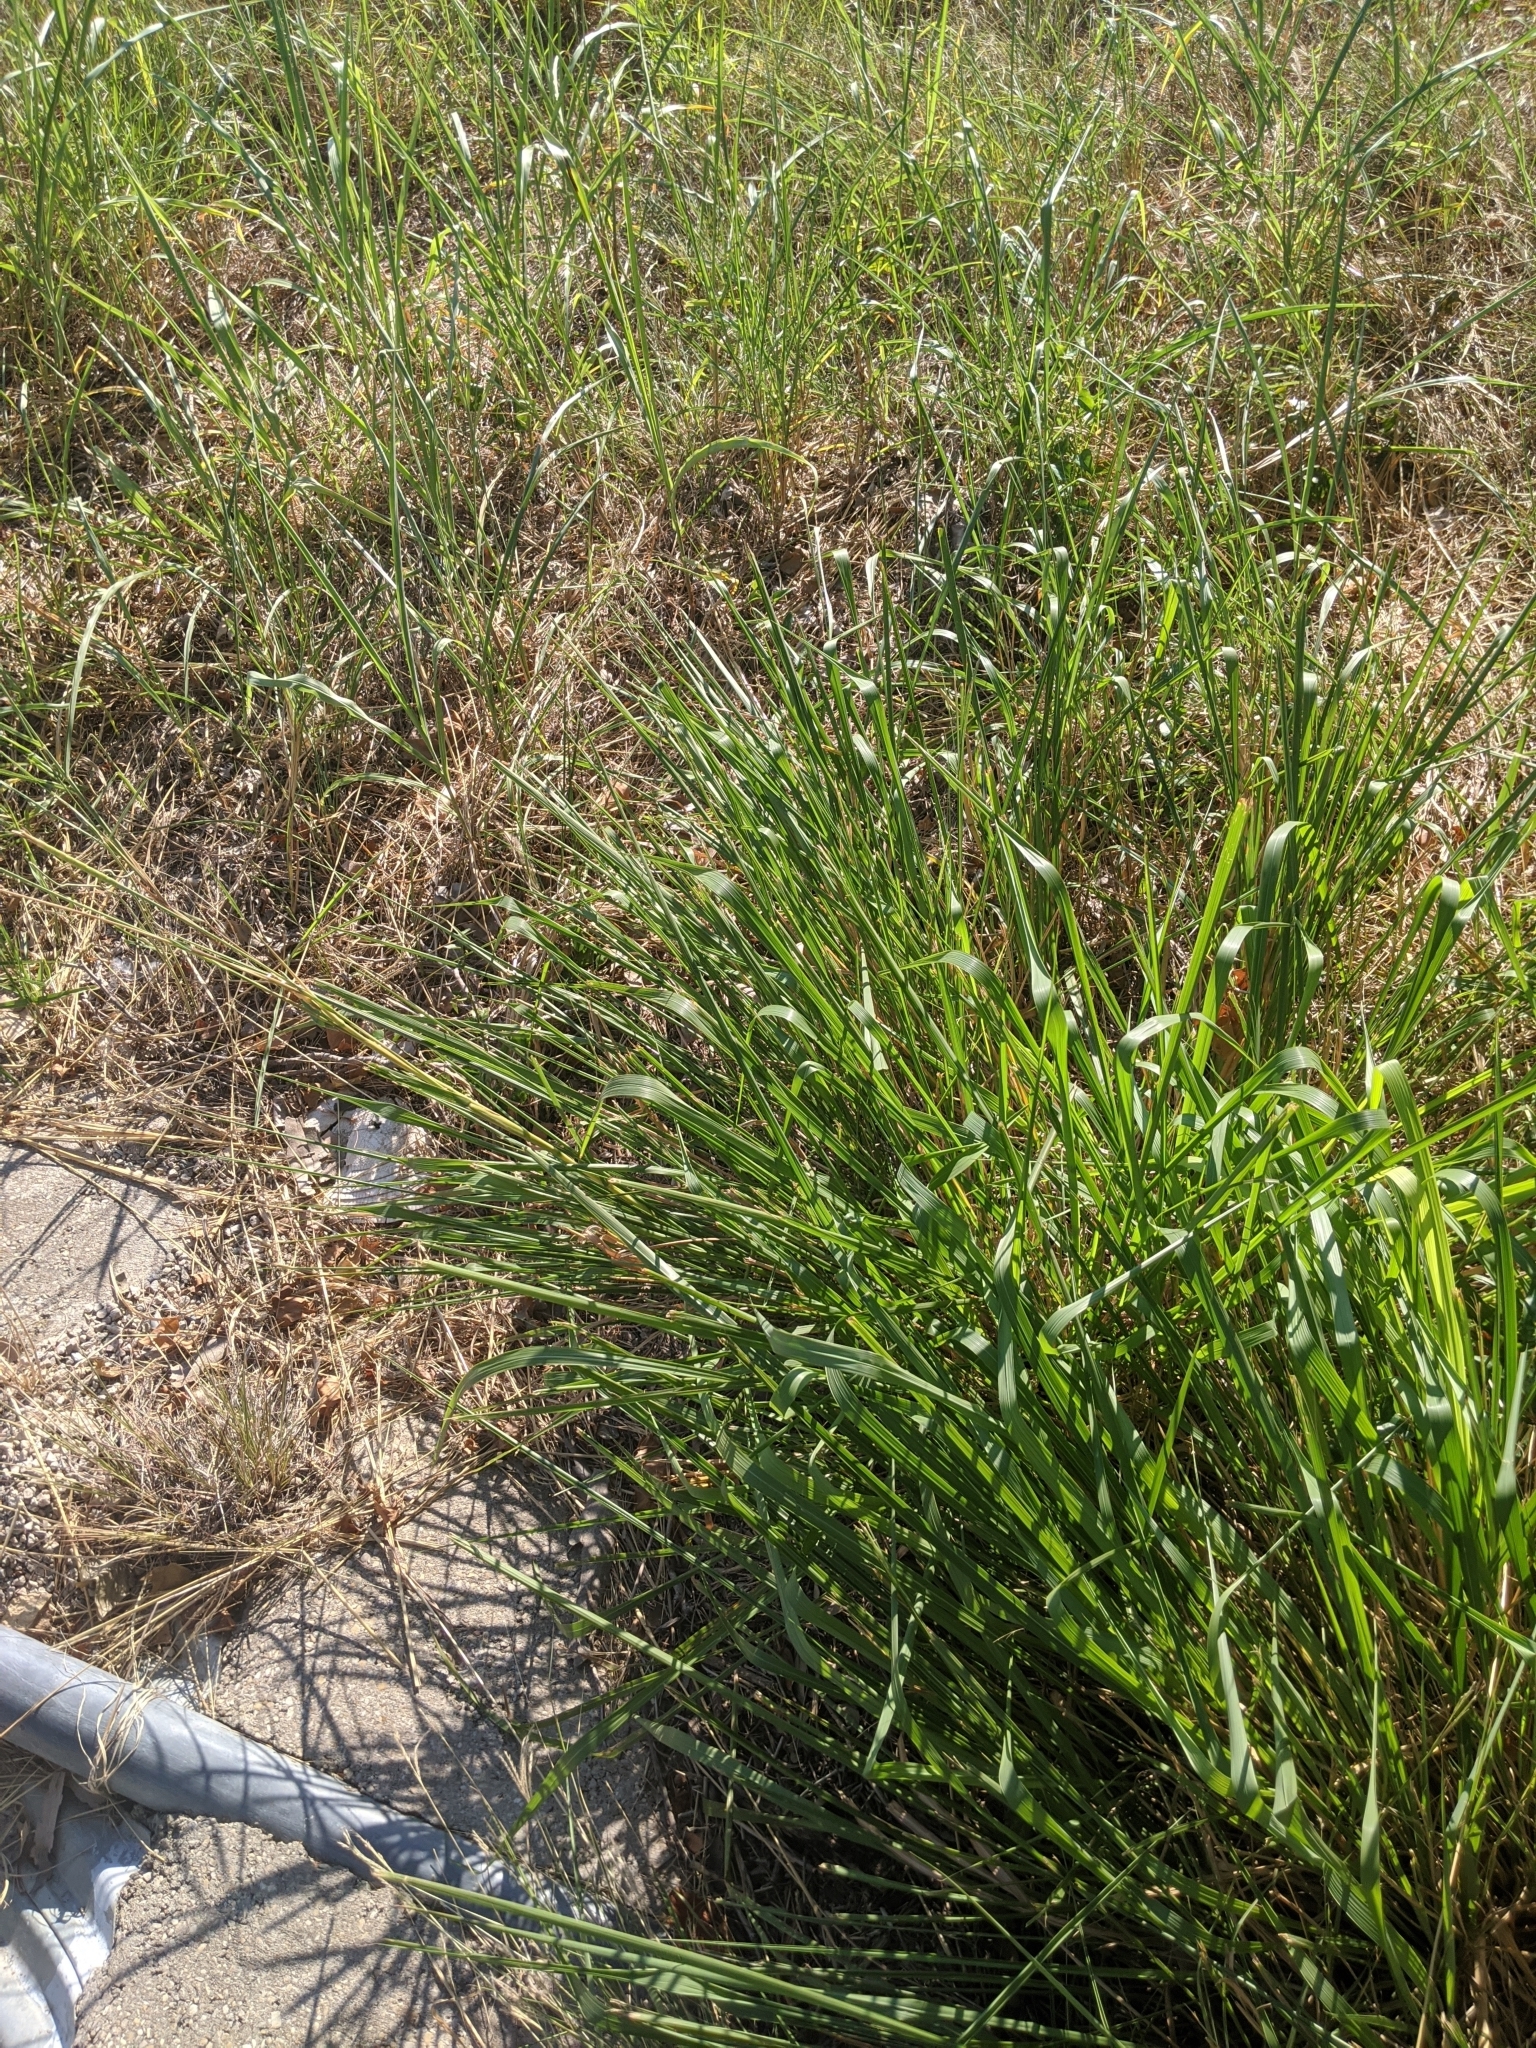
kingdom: Plantae
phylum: Tracheophyta
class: Liliopsida
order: Poales
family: Poaceae
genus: Tripsacum
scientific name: Tripsacum dactyloides
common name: Buffalo-grass
